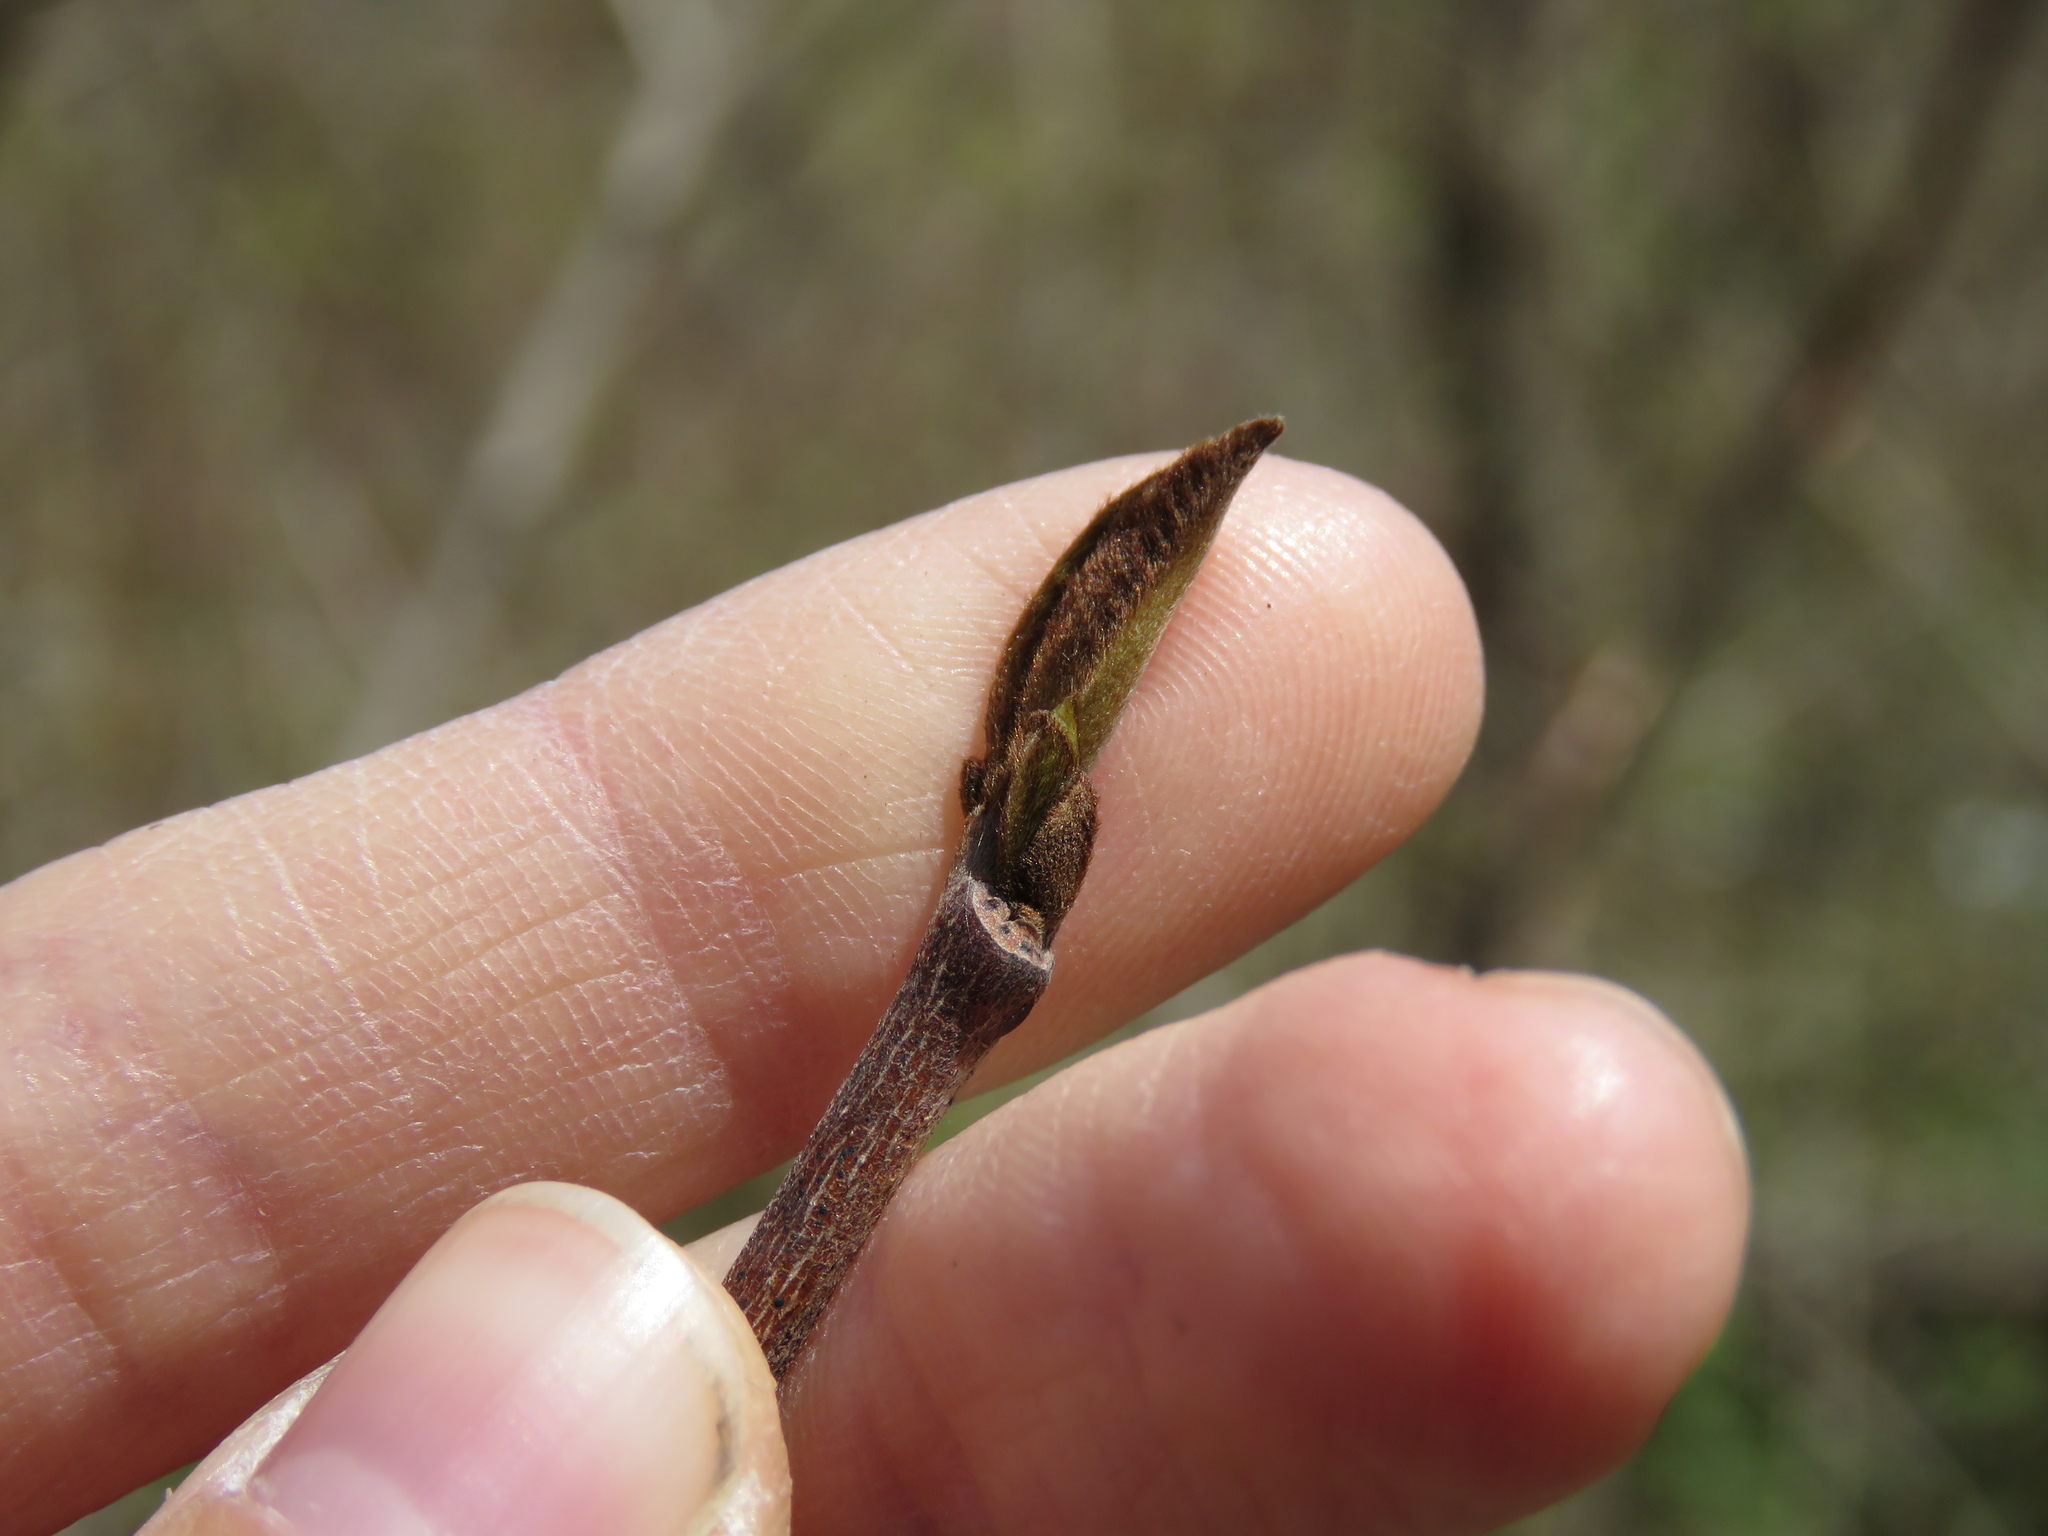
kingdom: Plantae
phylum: Tracheophyta
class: Magnoliopsida
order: Magnoliales
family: Annonaceae
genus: Asimina
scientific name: Asimina triloba
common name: Dog-banana
